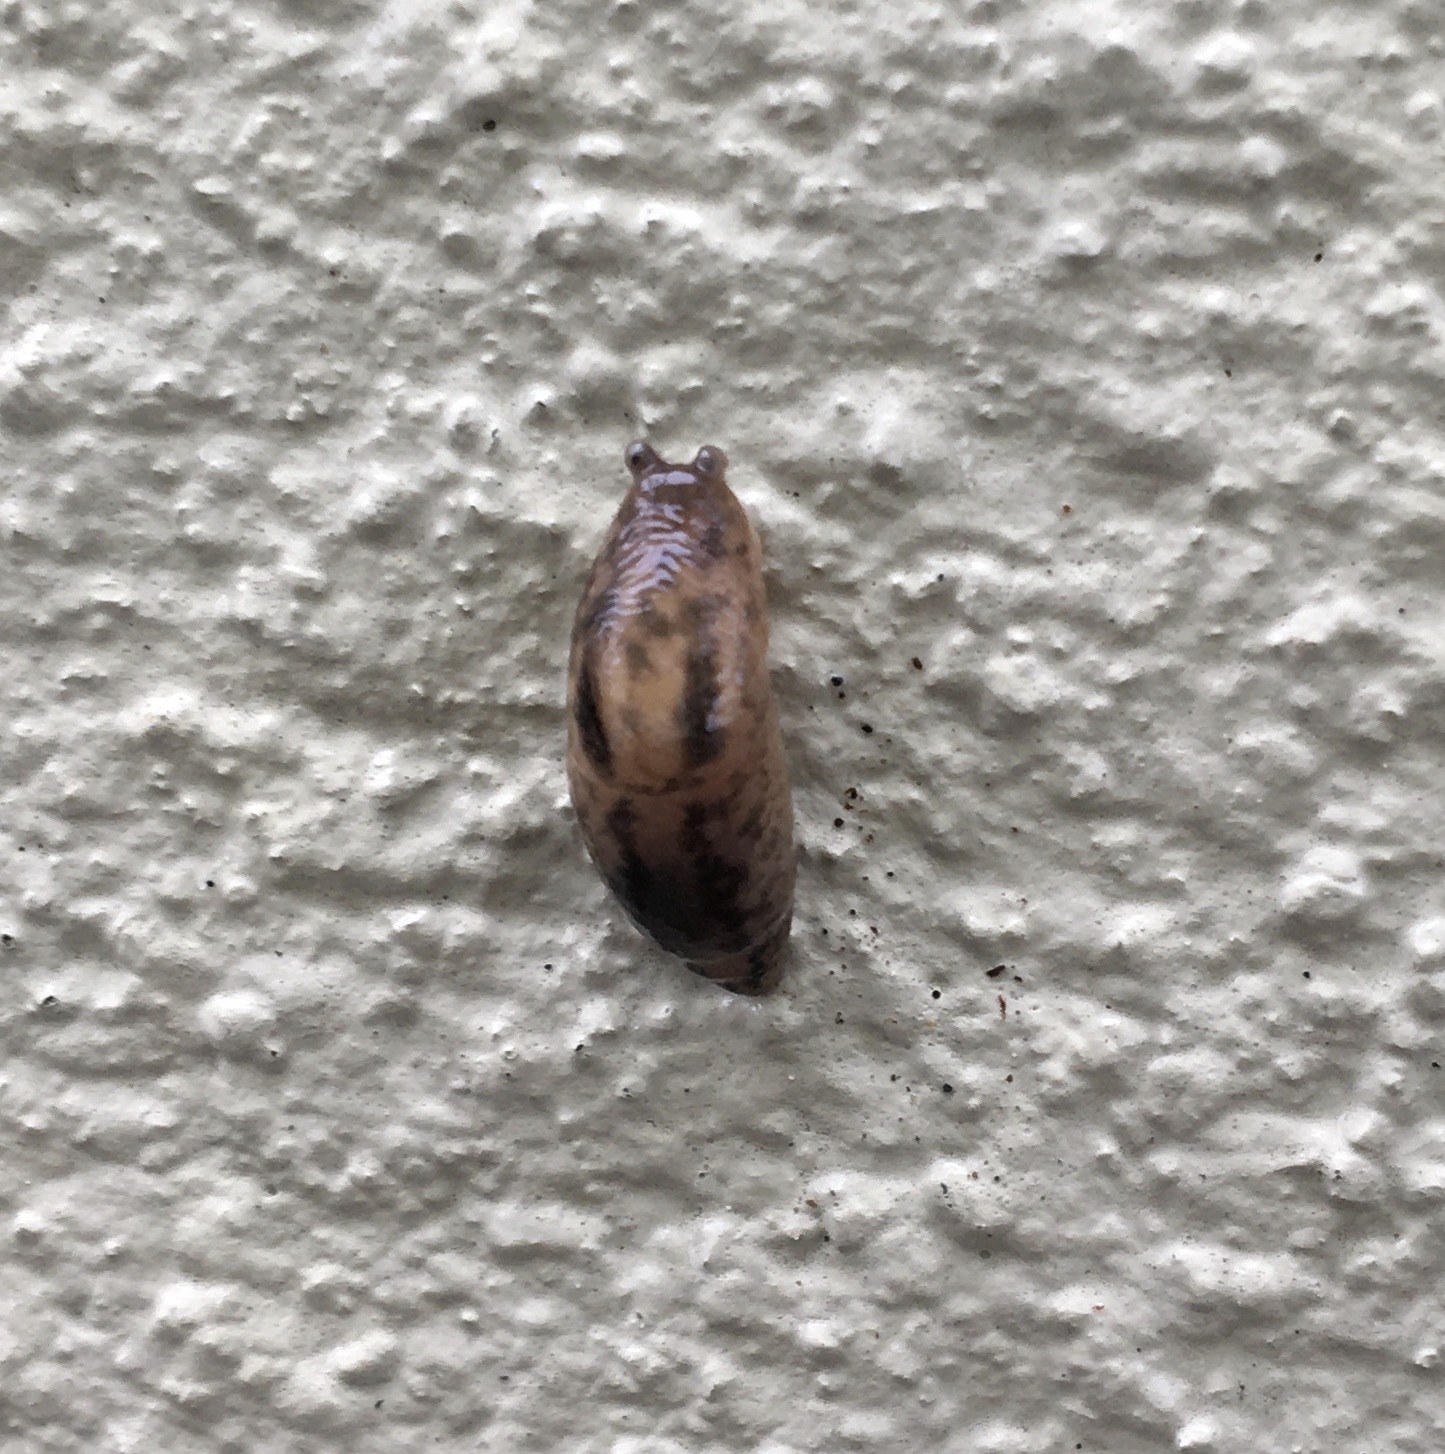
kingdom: Animalia
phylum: Mollusca
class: Gastropoda
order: Stylommatophora
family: Limacidae
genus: Ambigolimax
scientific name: Ambigolimax
